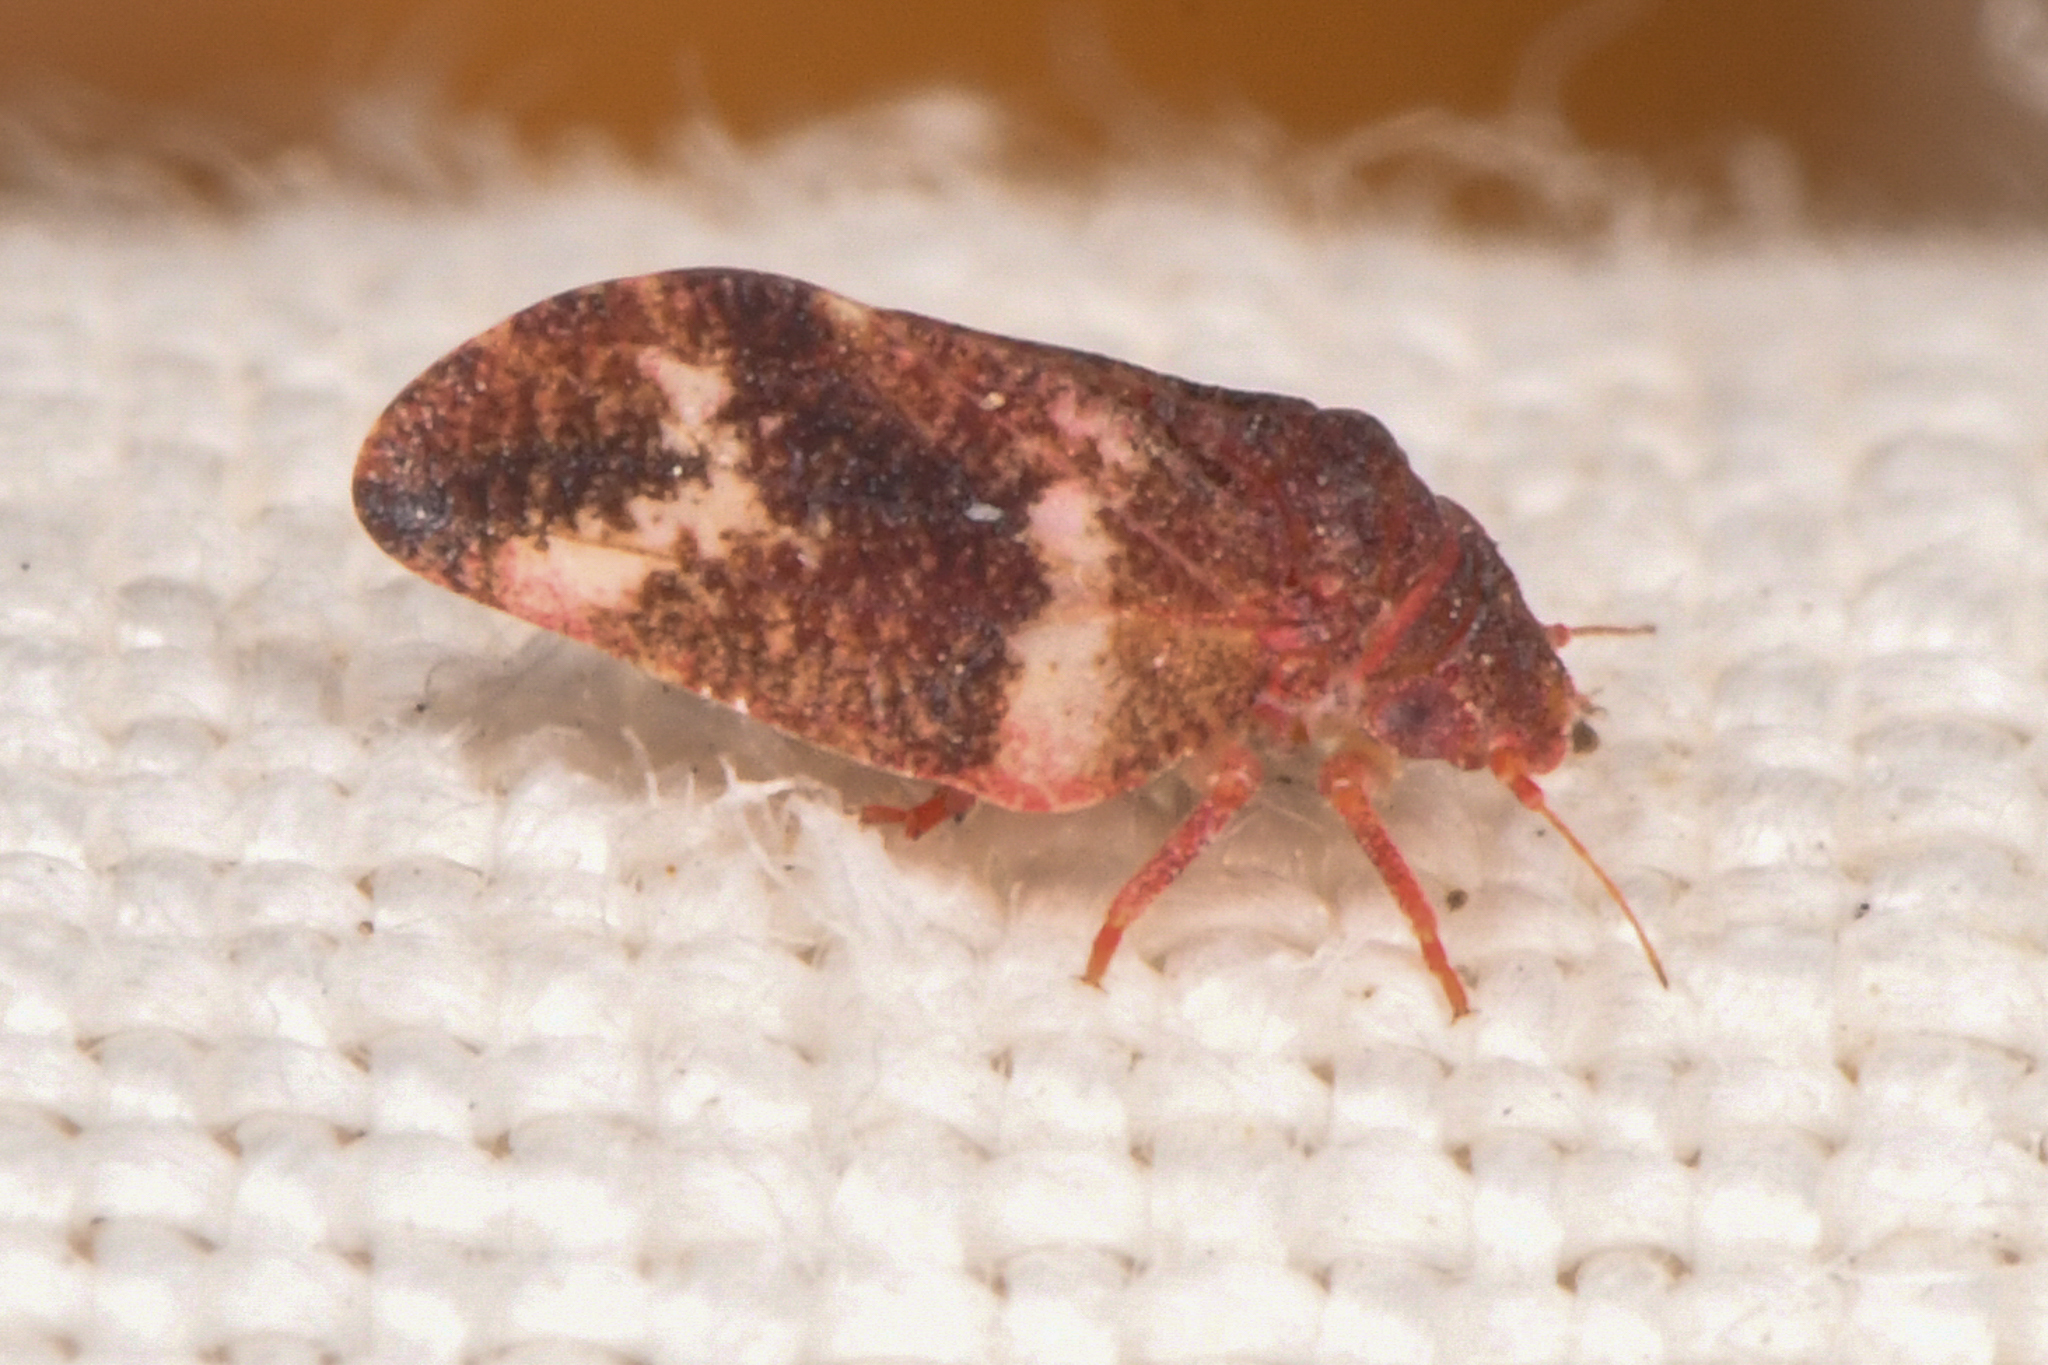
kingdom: Animalia
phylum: Arthropoda
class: Insecta
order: Hemiptera
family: Liviidae
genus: Neophyllura
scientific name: Neophyllura arctostaphyli
